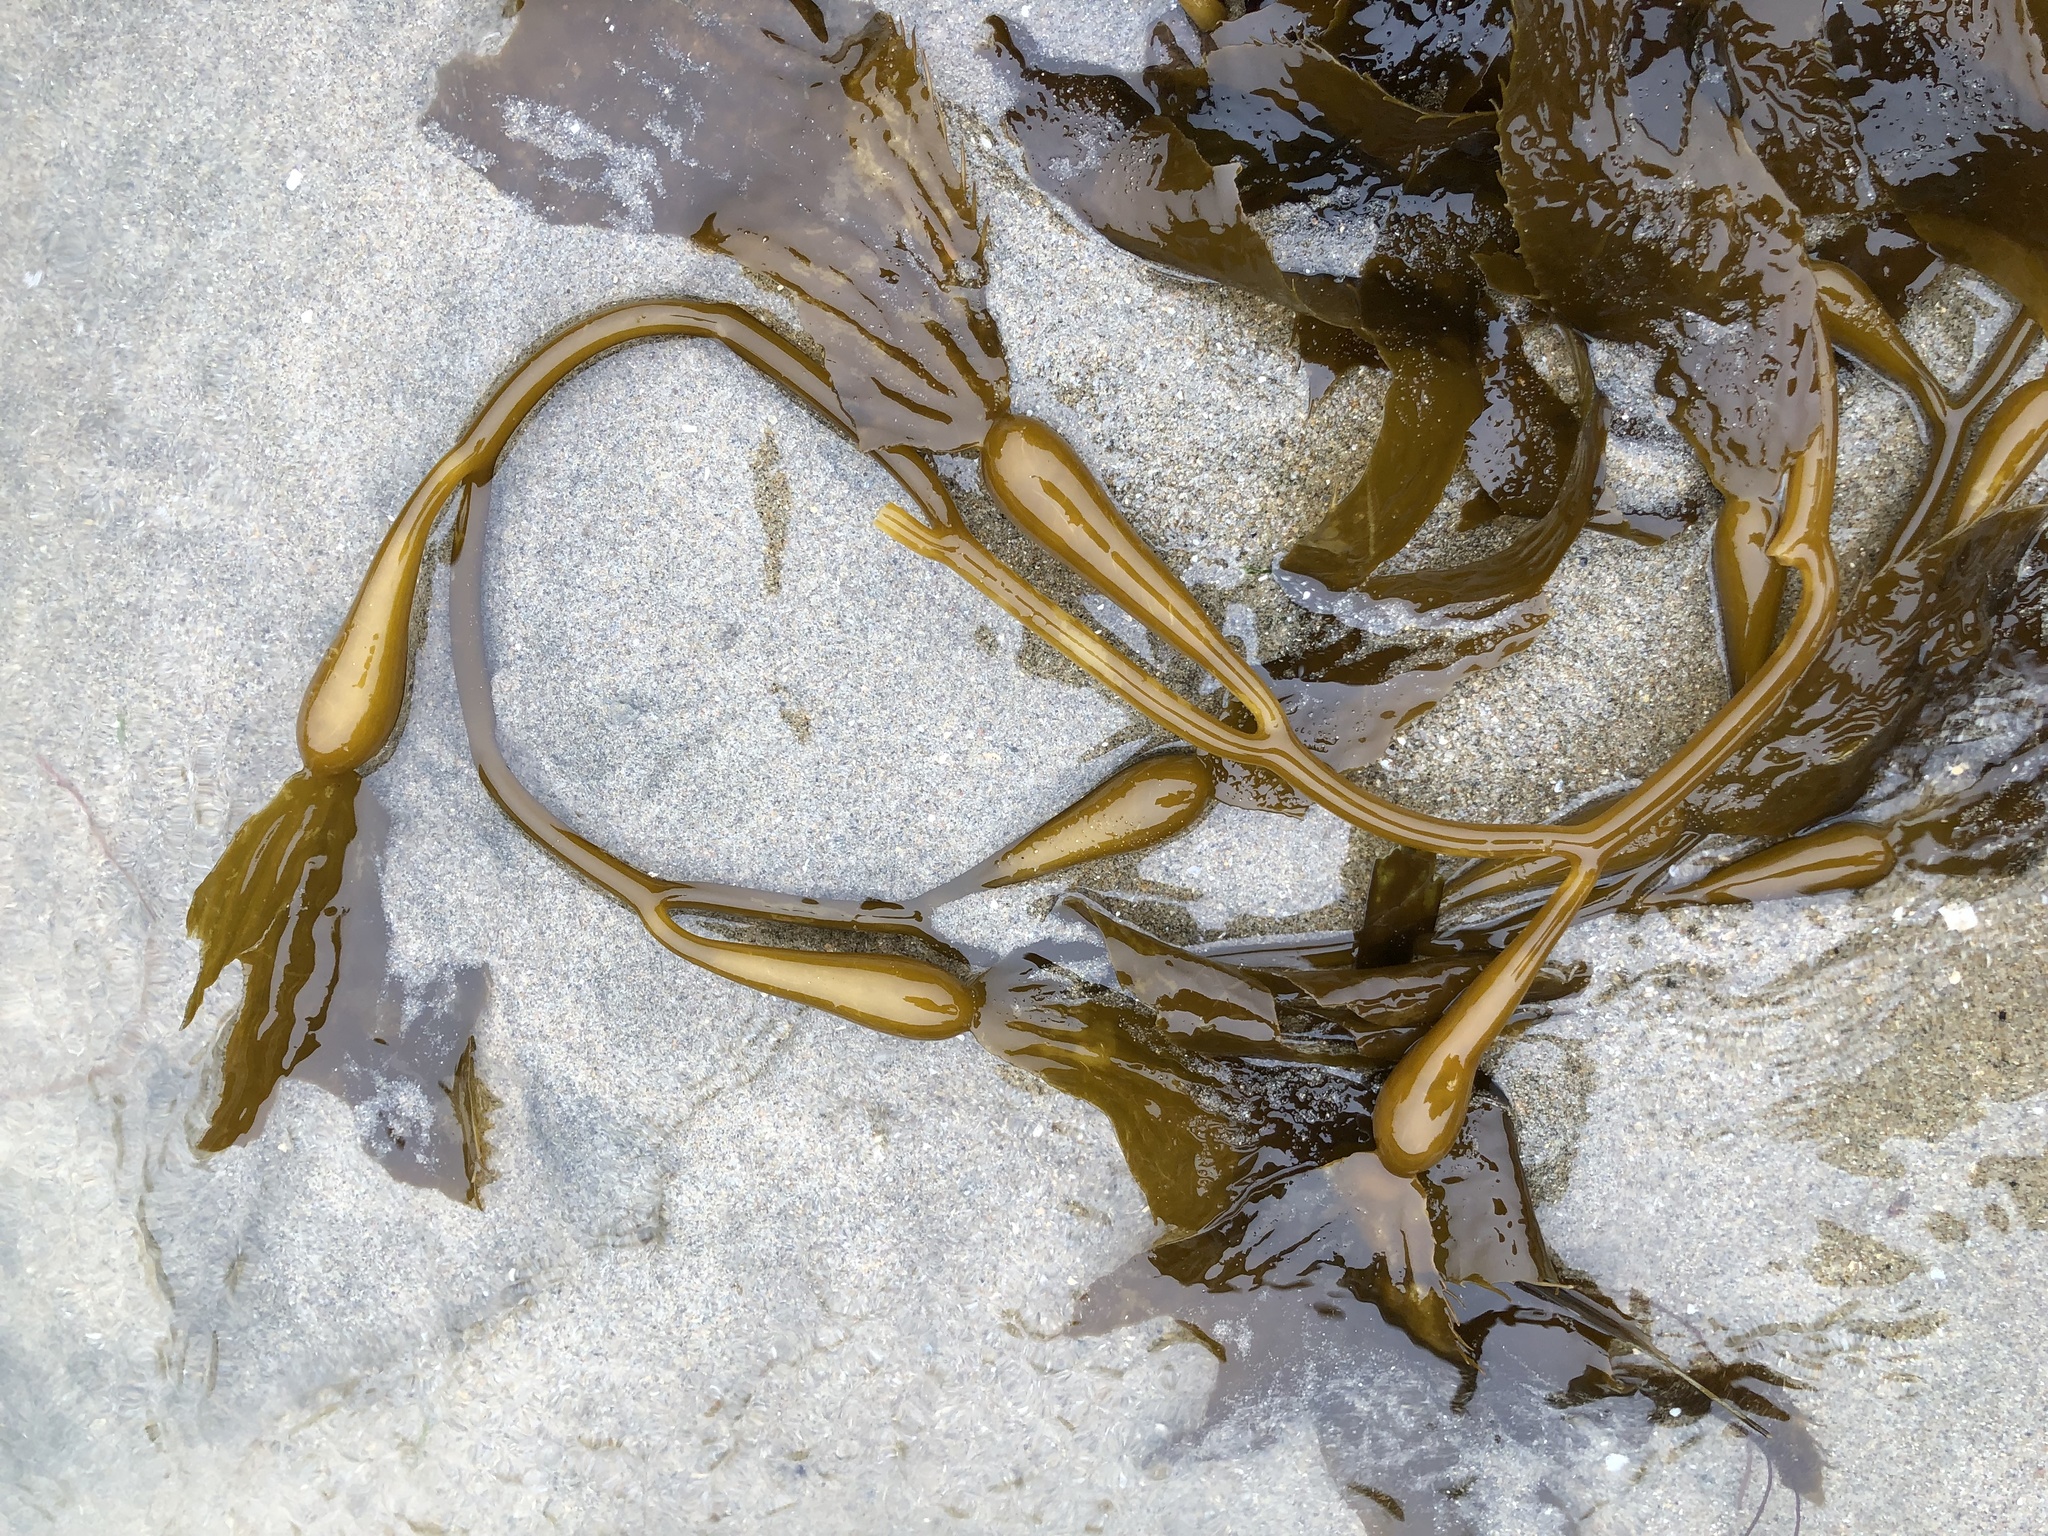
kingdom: Chromista
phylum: Ochrophyta
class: Phaeophyceae
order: Laminariales
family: Laminariaceae
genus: Macrocystis
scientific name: Macrocystis pyrifera
